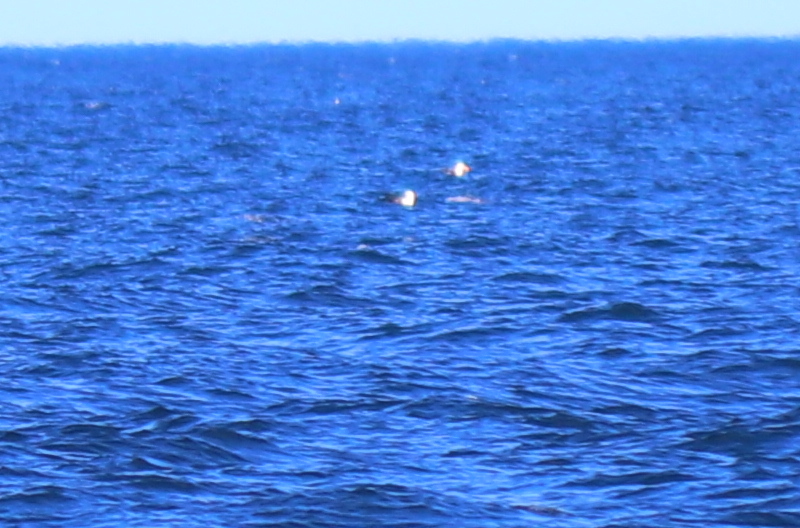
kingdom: Animalia
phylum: Chordata
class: Aves
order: Procellariiformes
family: Diomedeidae
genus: Thalassarche
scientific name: Thalassarche melanophris
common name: Black-browed albatross
